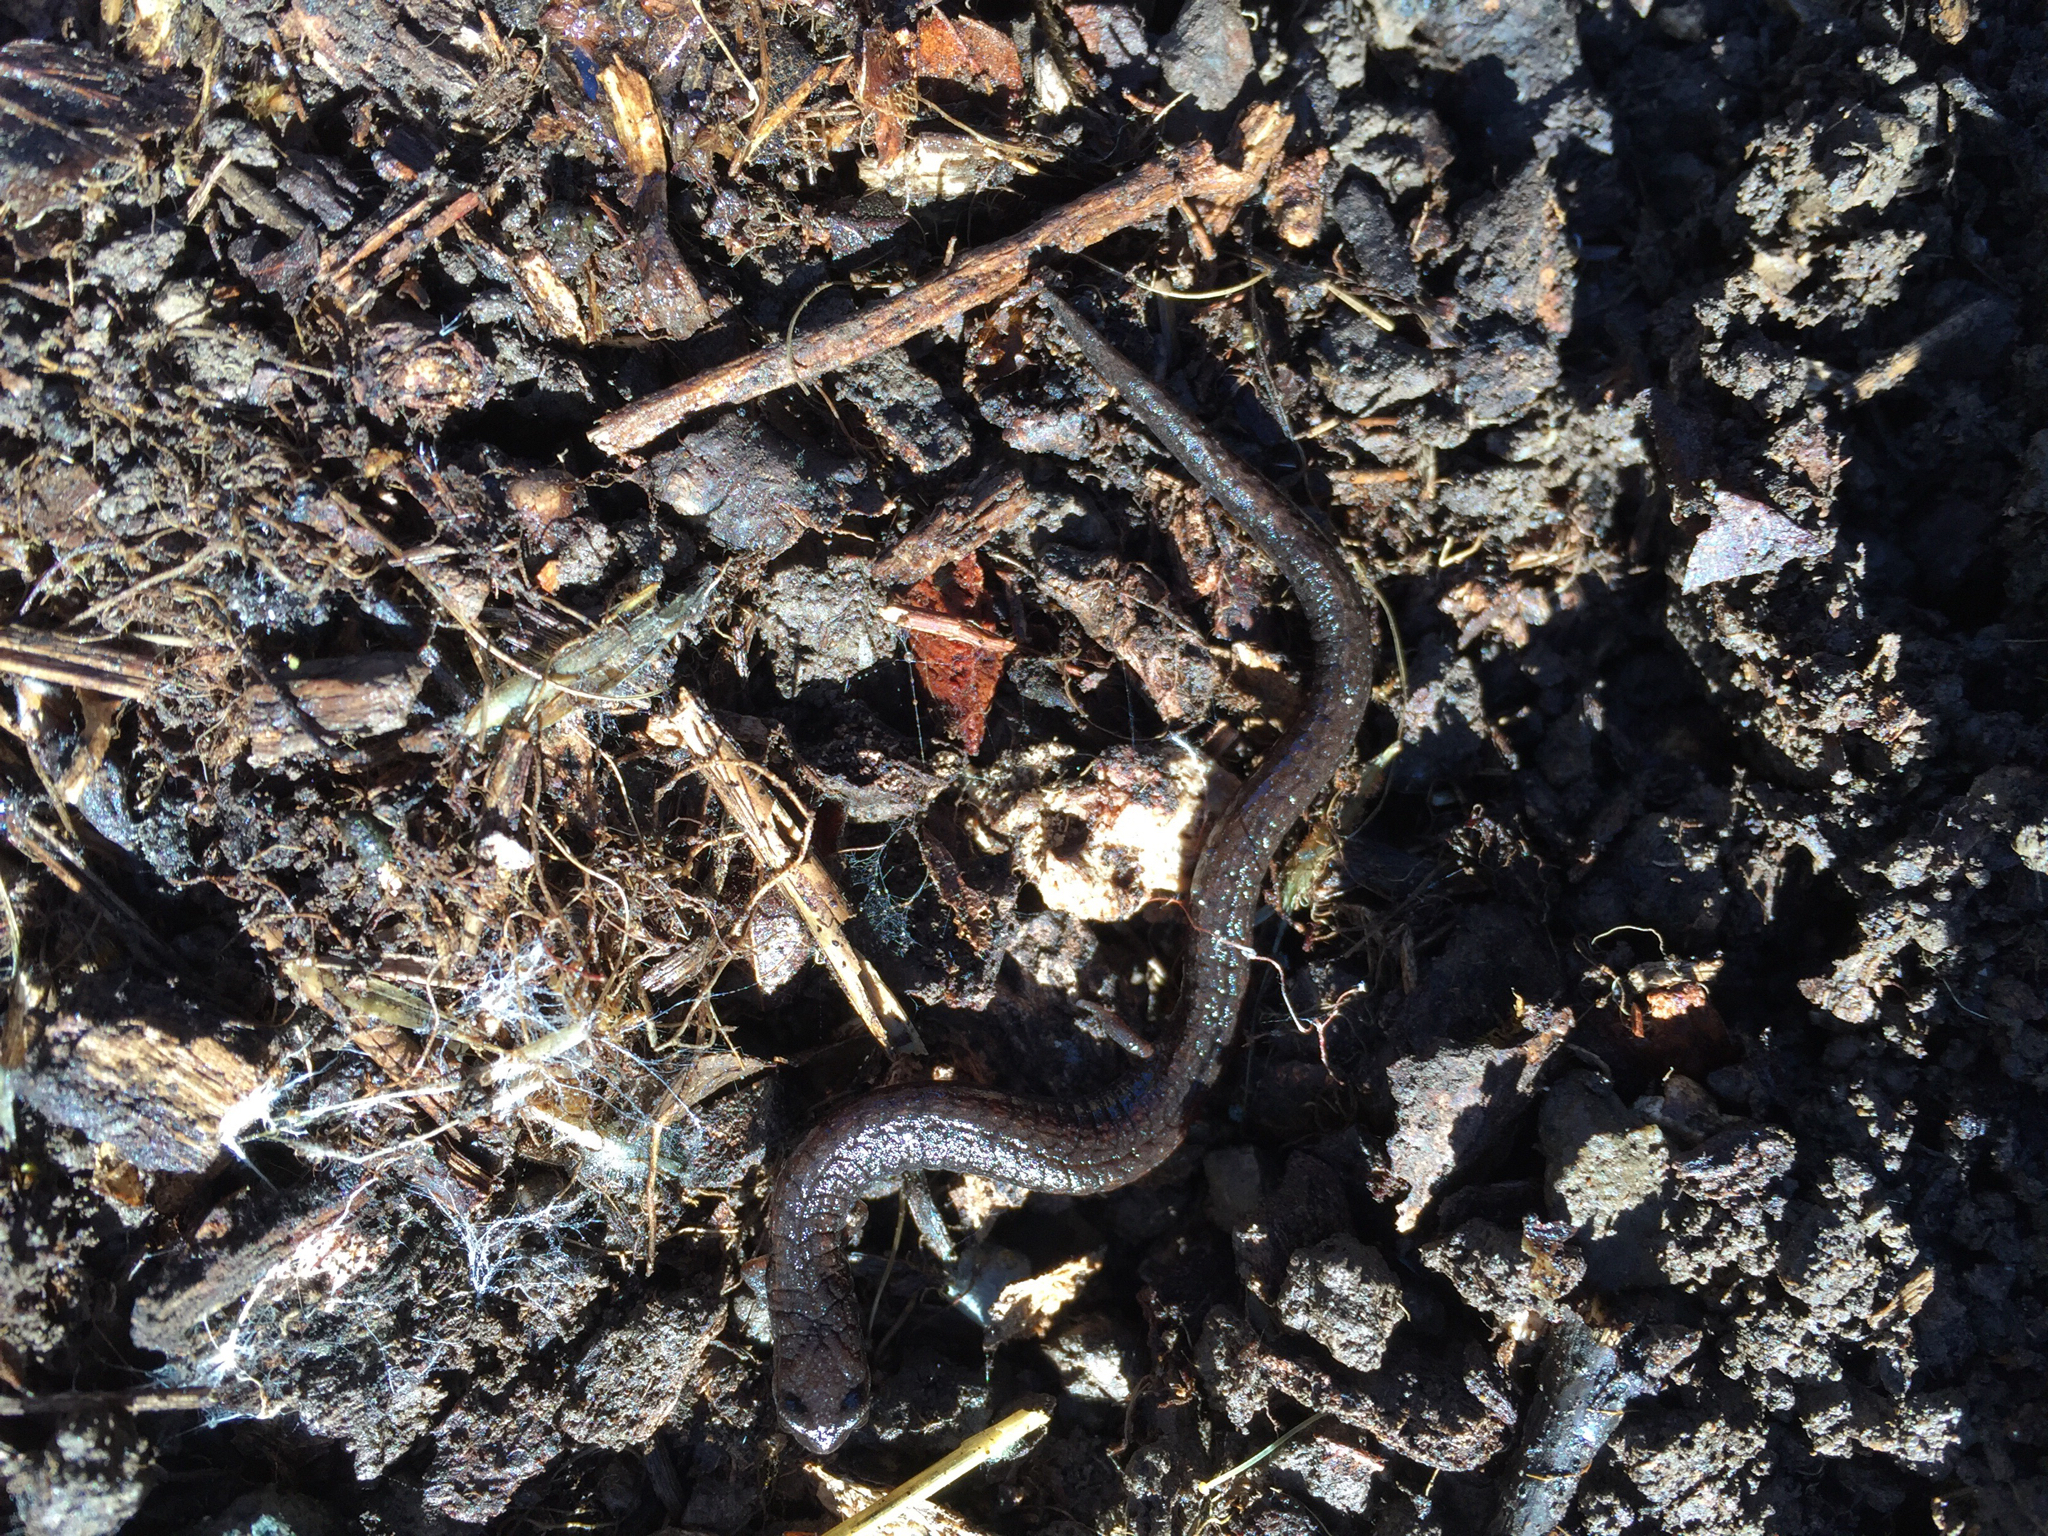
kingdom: Animalia
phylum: Chordata
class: Amphibia
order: Caudata
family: Plethodontidae
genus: Batrachoseps
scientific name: Batrachoseps attenuatus
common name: California slender salamander
